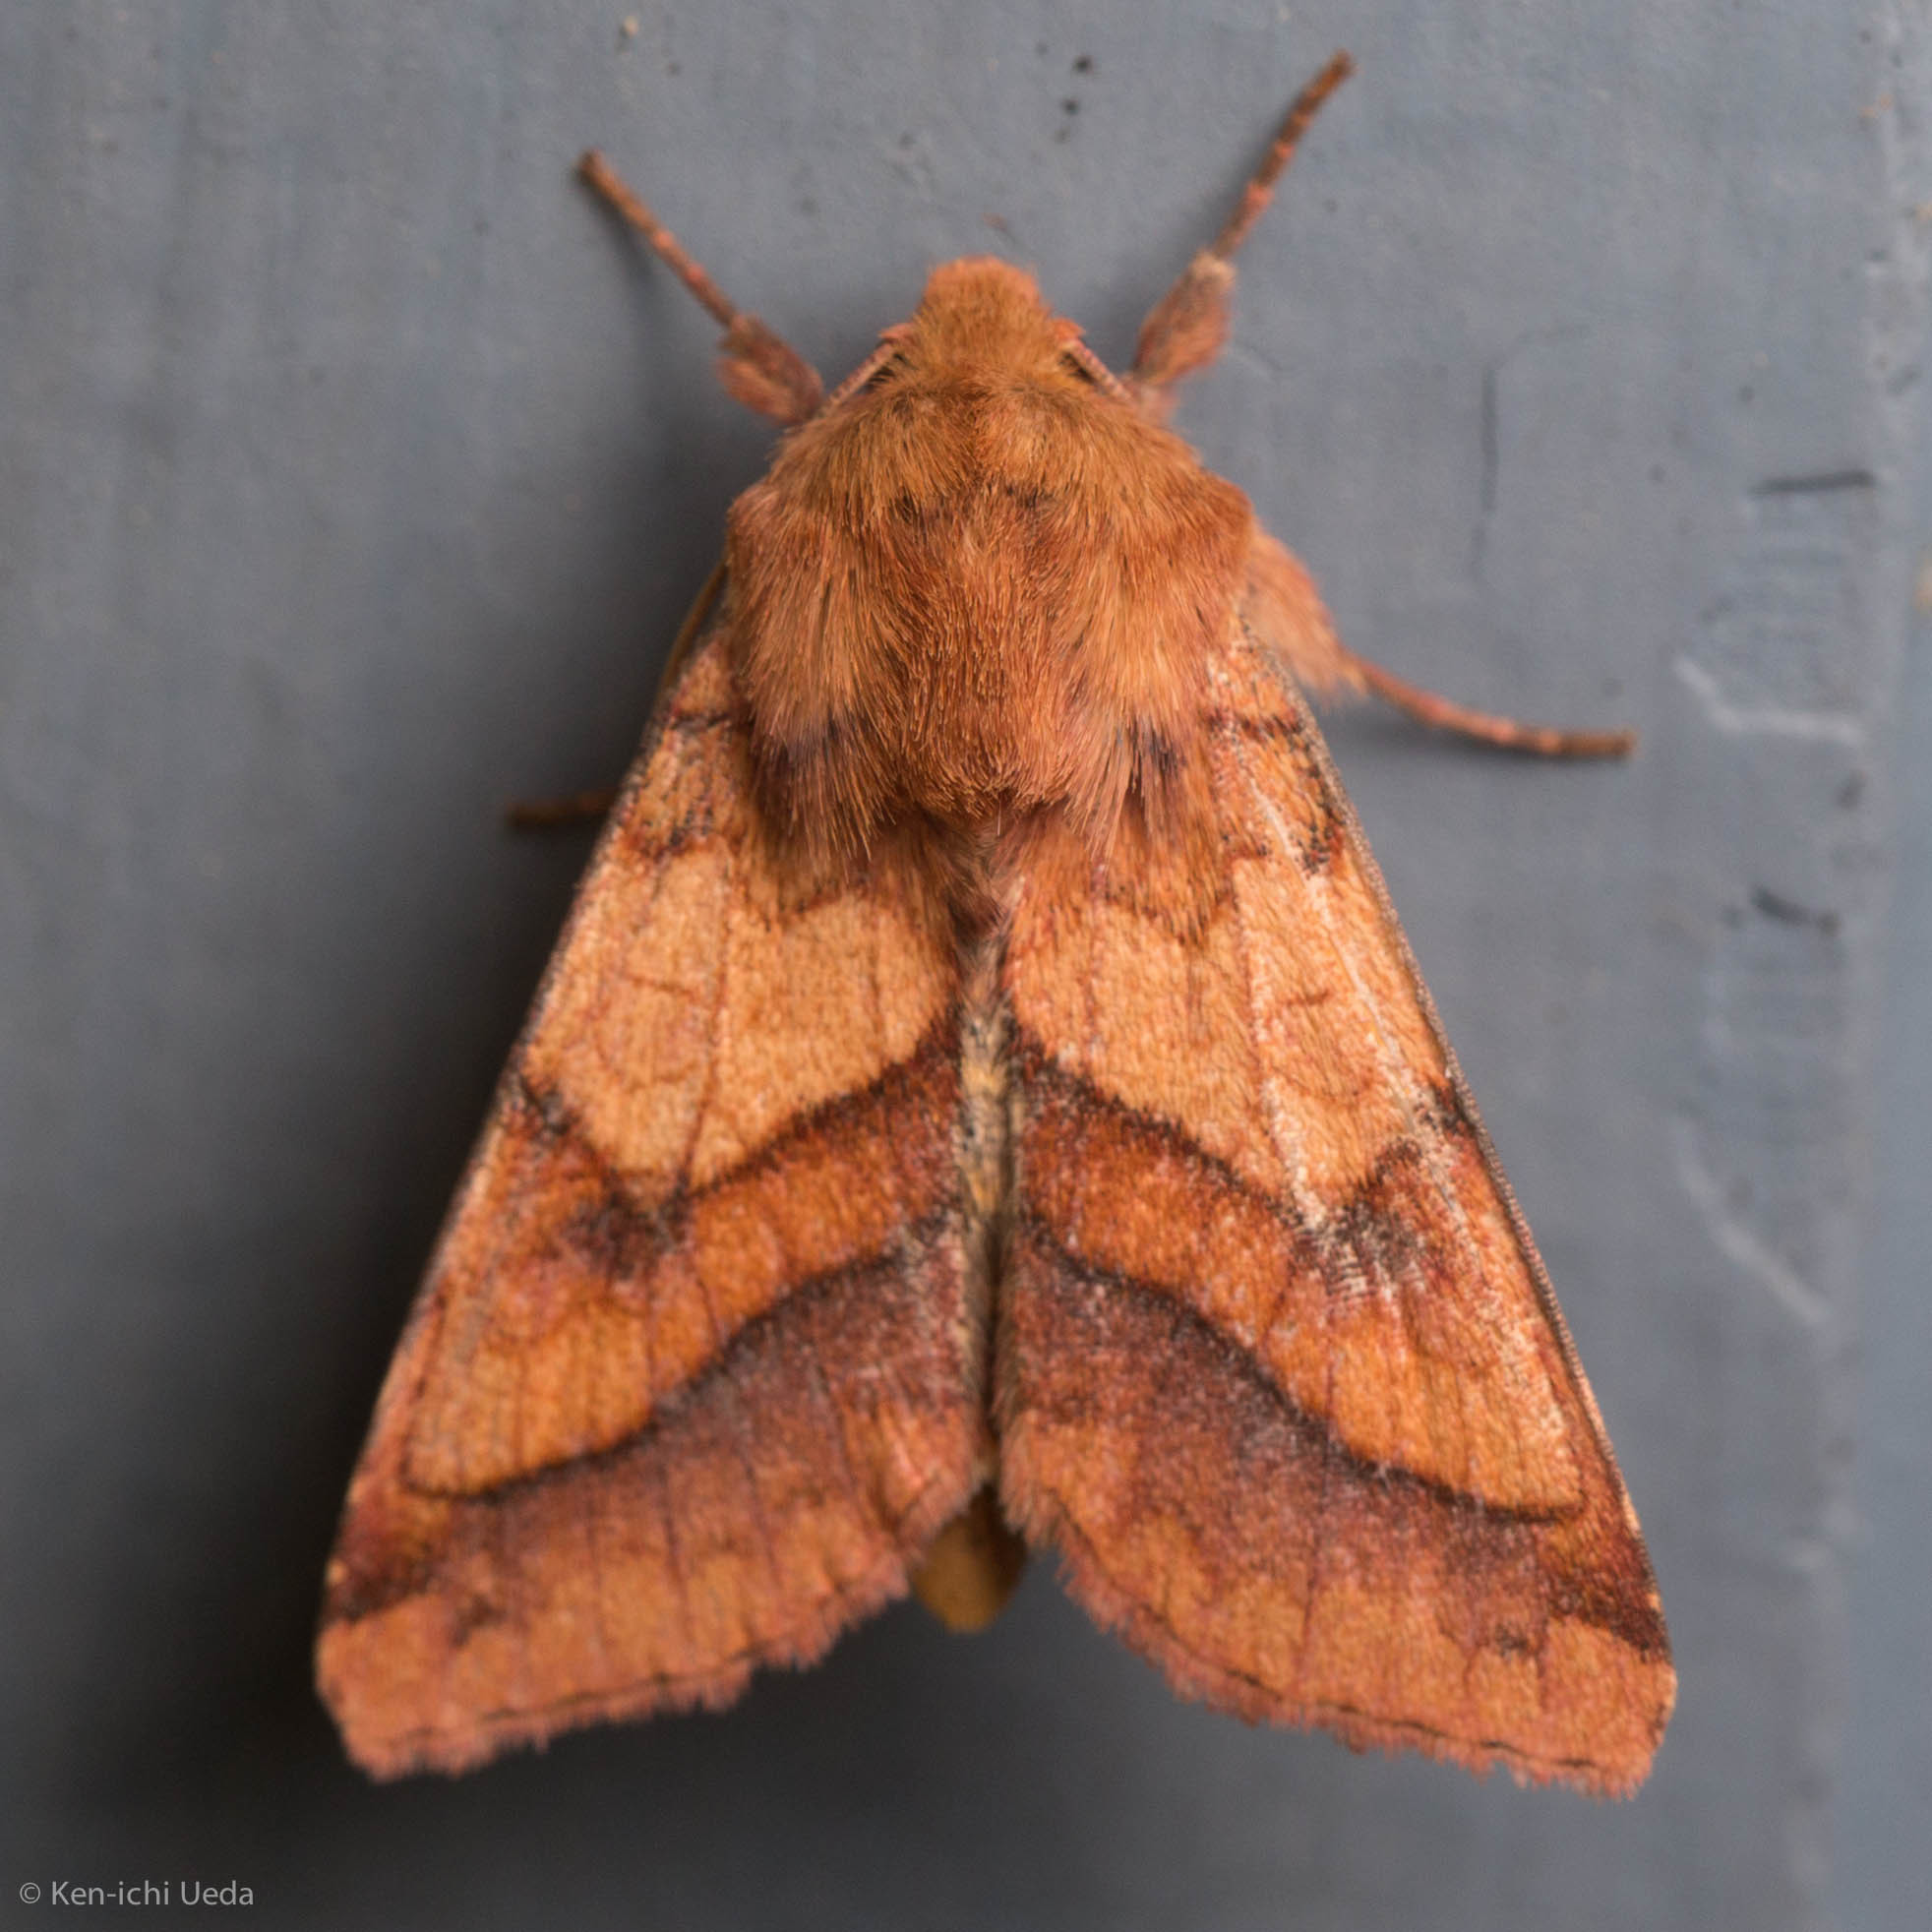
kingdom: Animalia
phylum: Arthropoda
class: Insecta
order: Lepidoptera
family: Noctuidae
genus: Pyrrhia
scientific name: Pyrrhia exprimens
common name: Purple-lined sallow
